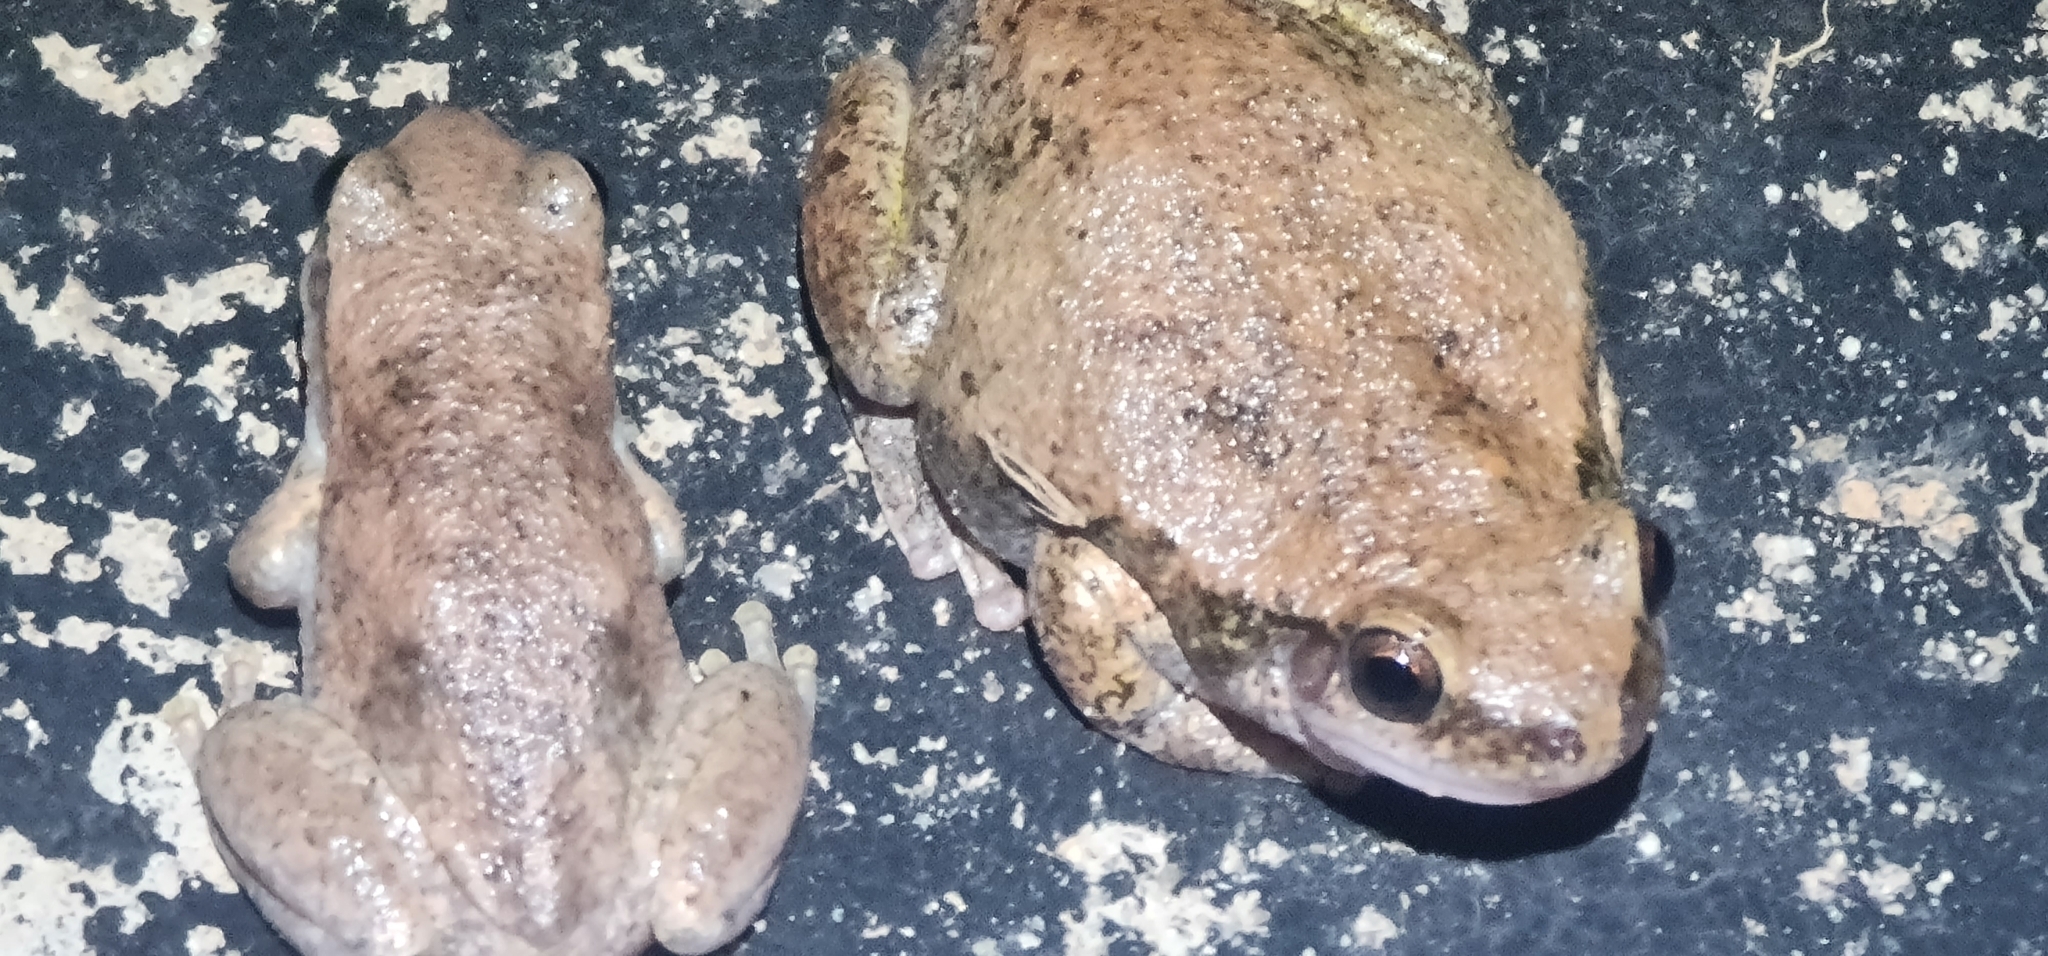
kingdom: Animalia
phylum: Chordata
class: Amphibia
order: Anura
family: Pelodryadidae
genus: Litoria
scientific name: Litoria rubella
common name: Desert tree frog
